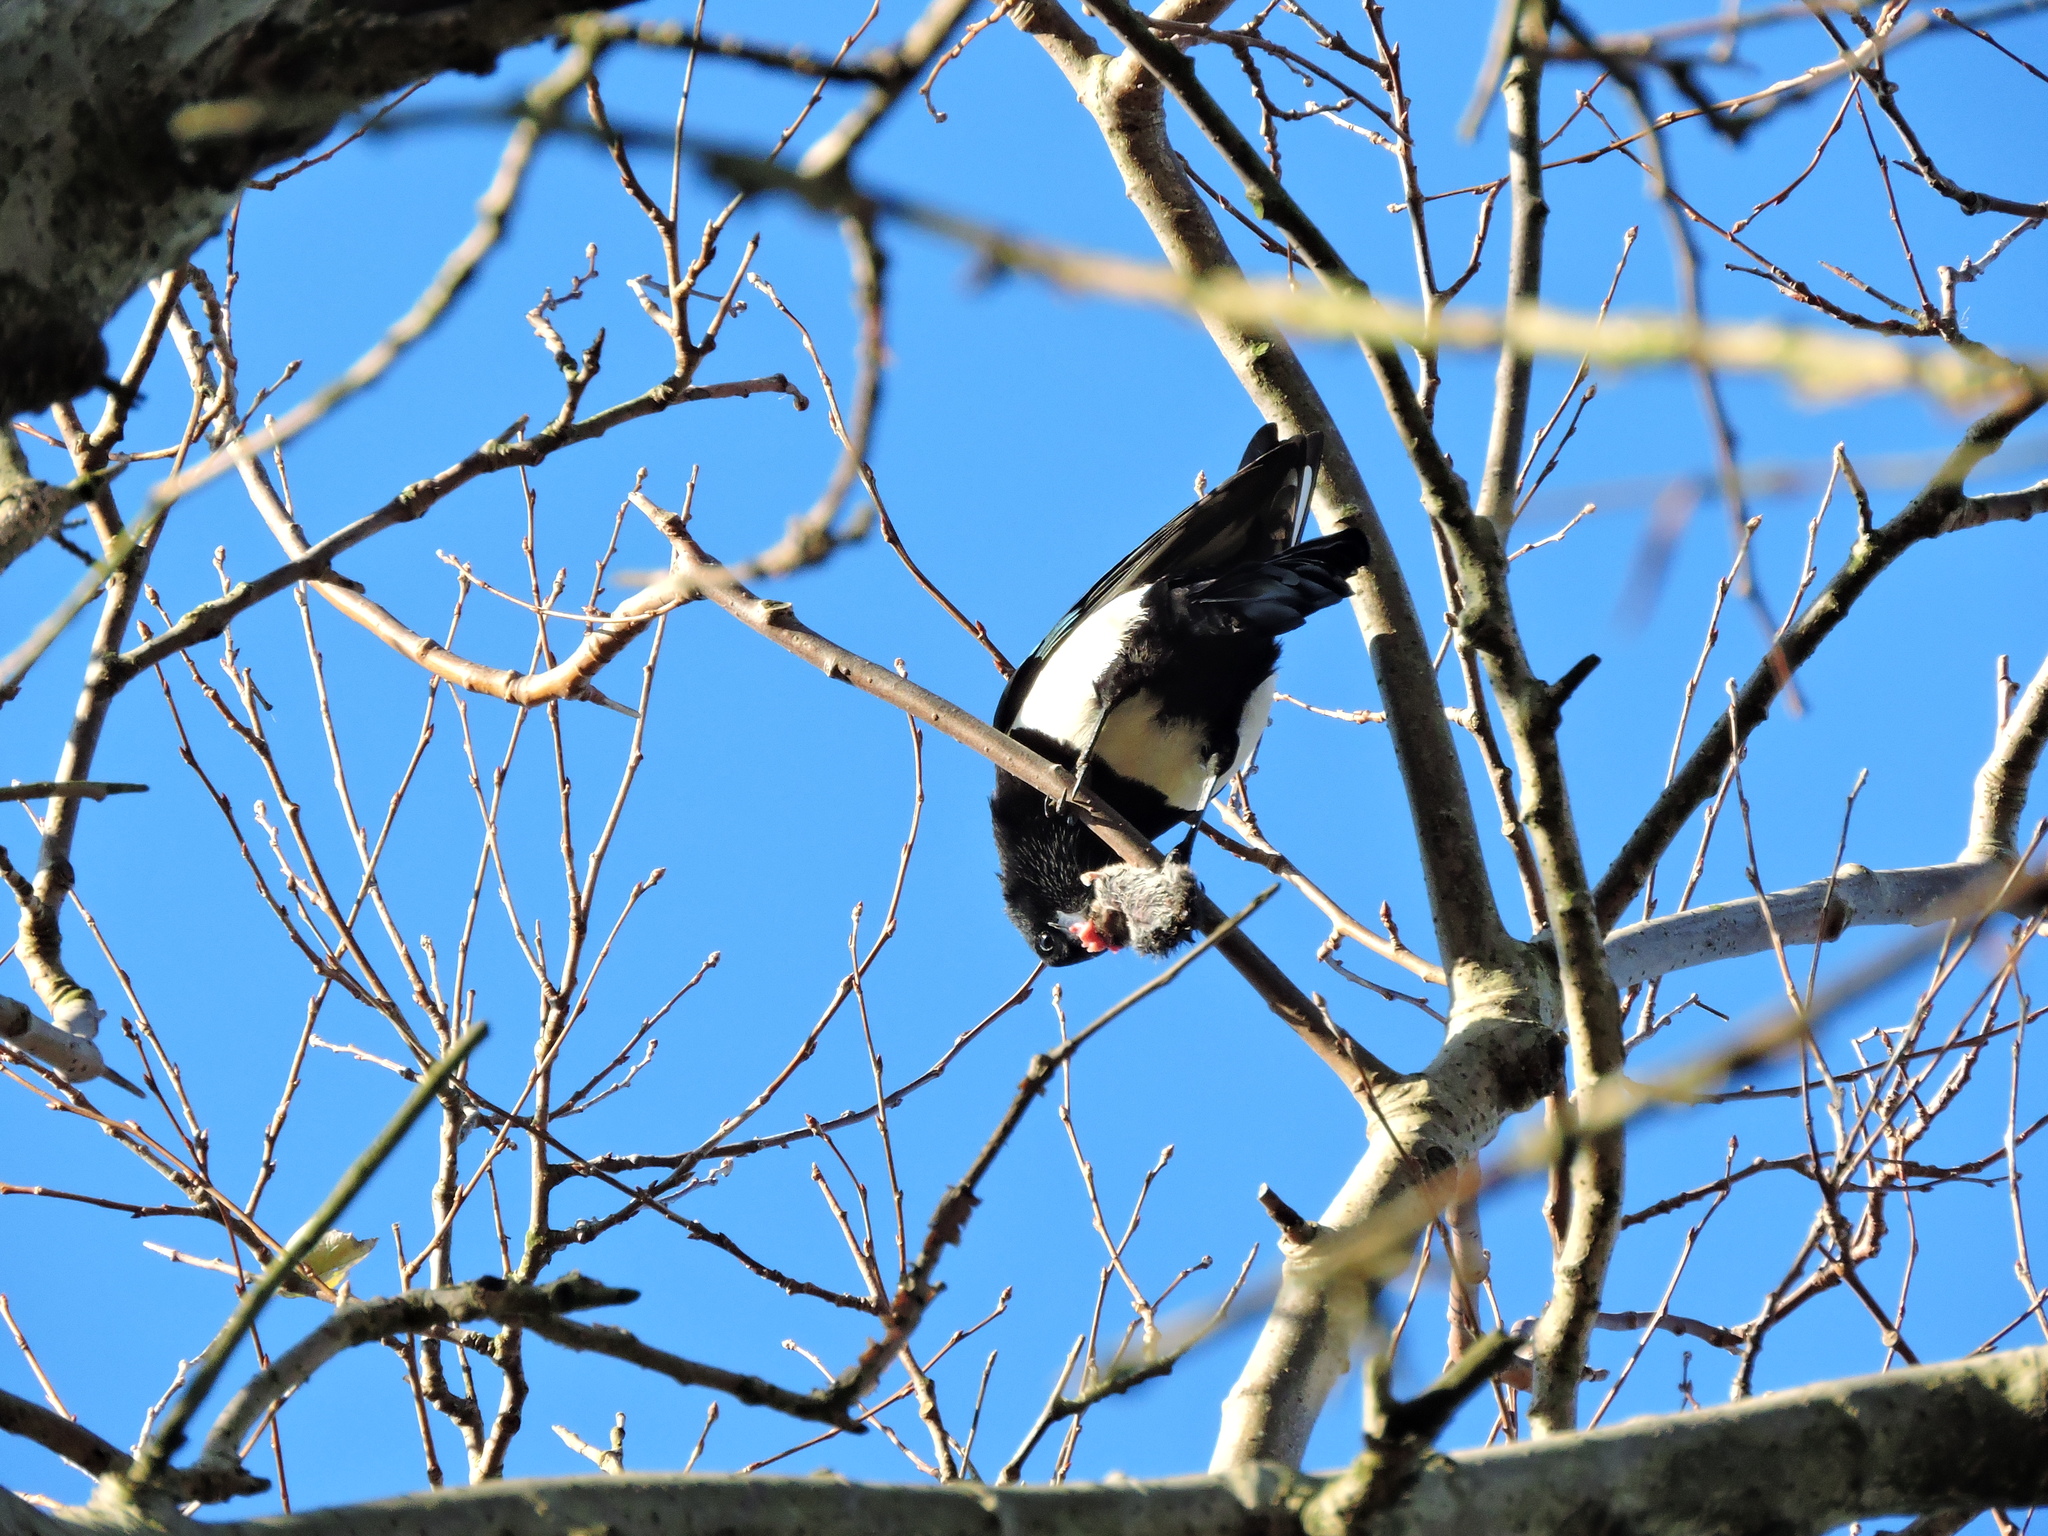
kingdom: Animalia
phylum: Chordata
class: Aves
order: Passeriformes
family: Corvidae
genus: Pica
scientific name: Pica pica
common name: Eurasian magpie
